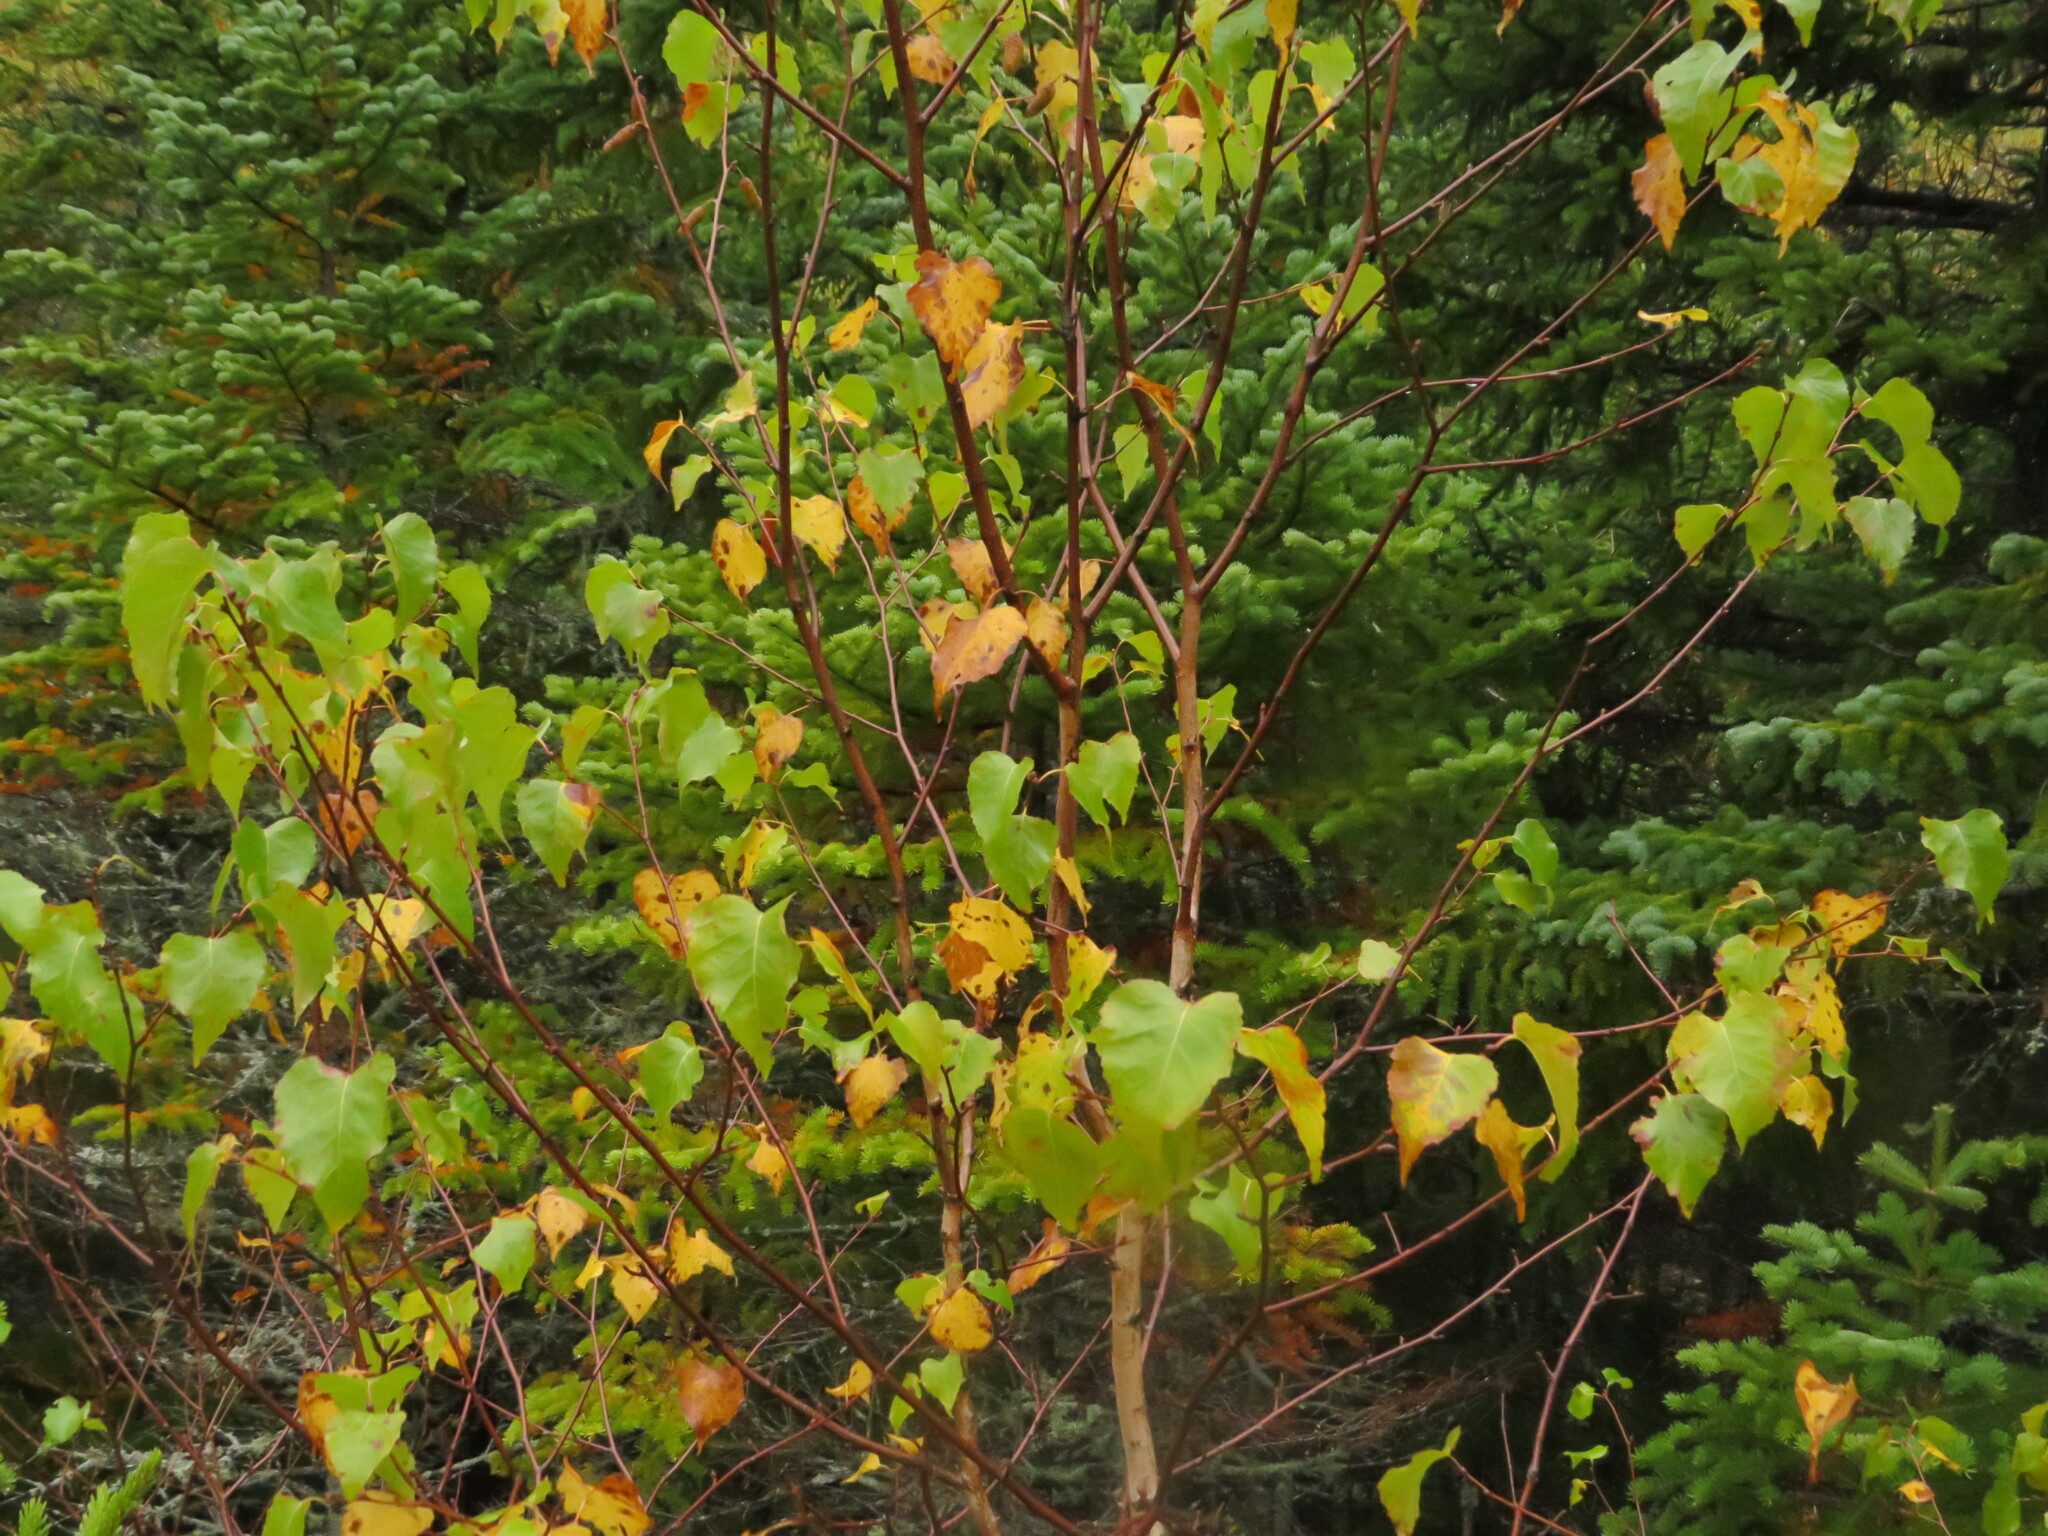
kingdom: Plantae
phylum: Tracheophyta
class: Magnoliopsida
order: Fagales
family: Betulaceae
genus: Betula
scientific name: Betula populifolia
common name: Fire birch
